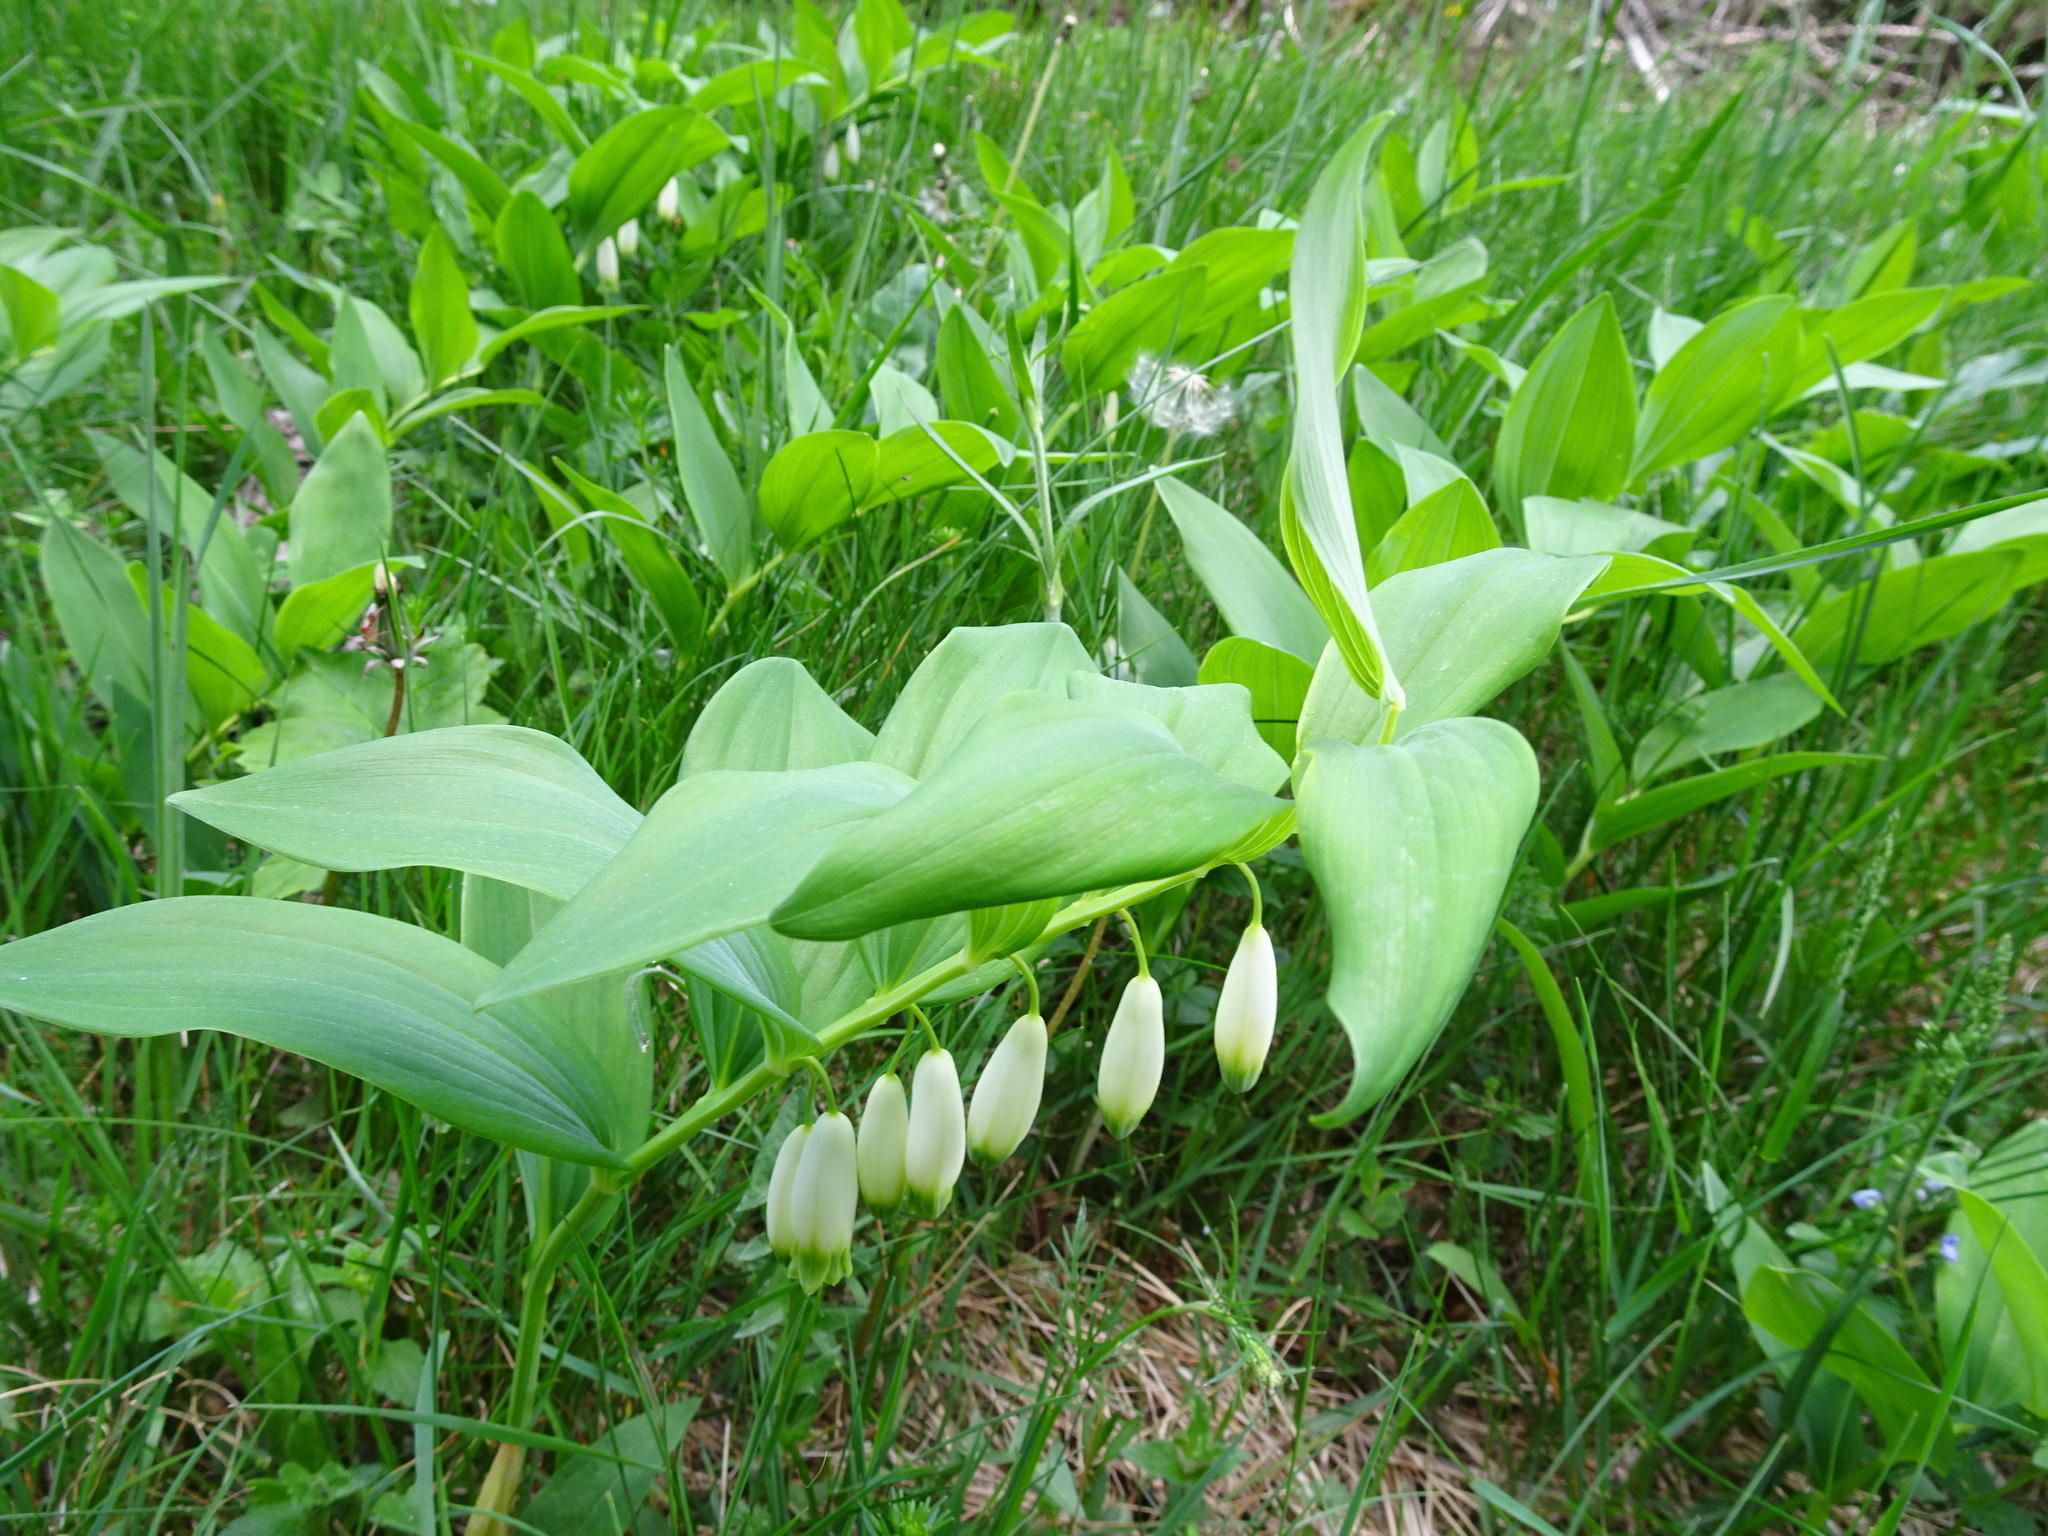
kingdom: Plantae
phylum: Tracheophyta
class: Liliopsida
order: Asparagales
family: Asparagaceae
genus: Polygonatum
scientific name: Polygonatum odoratum
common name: Angular solomon's-seal
